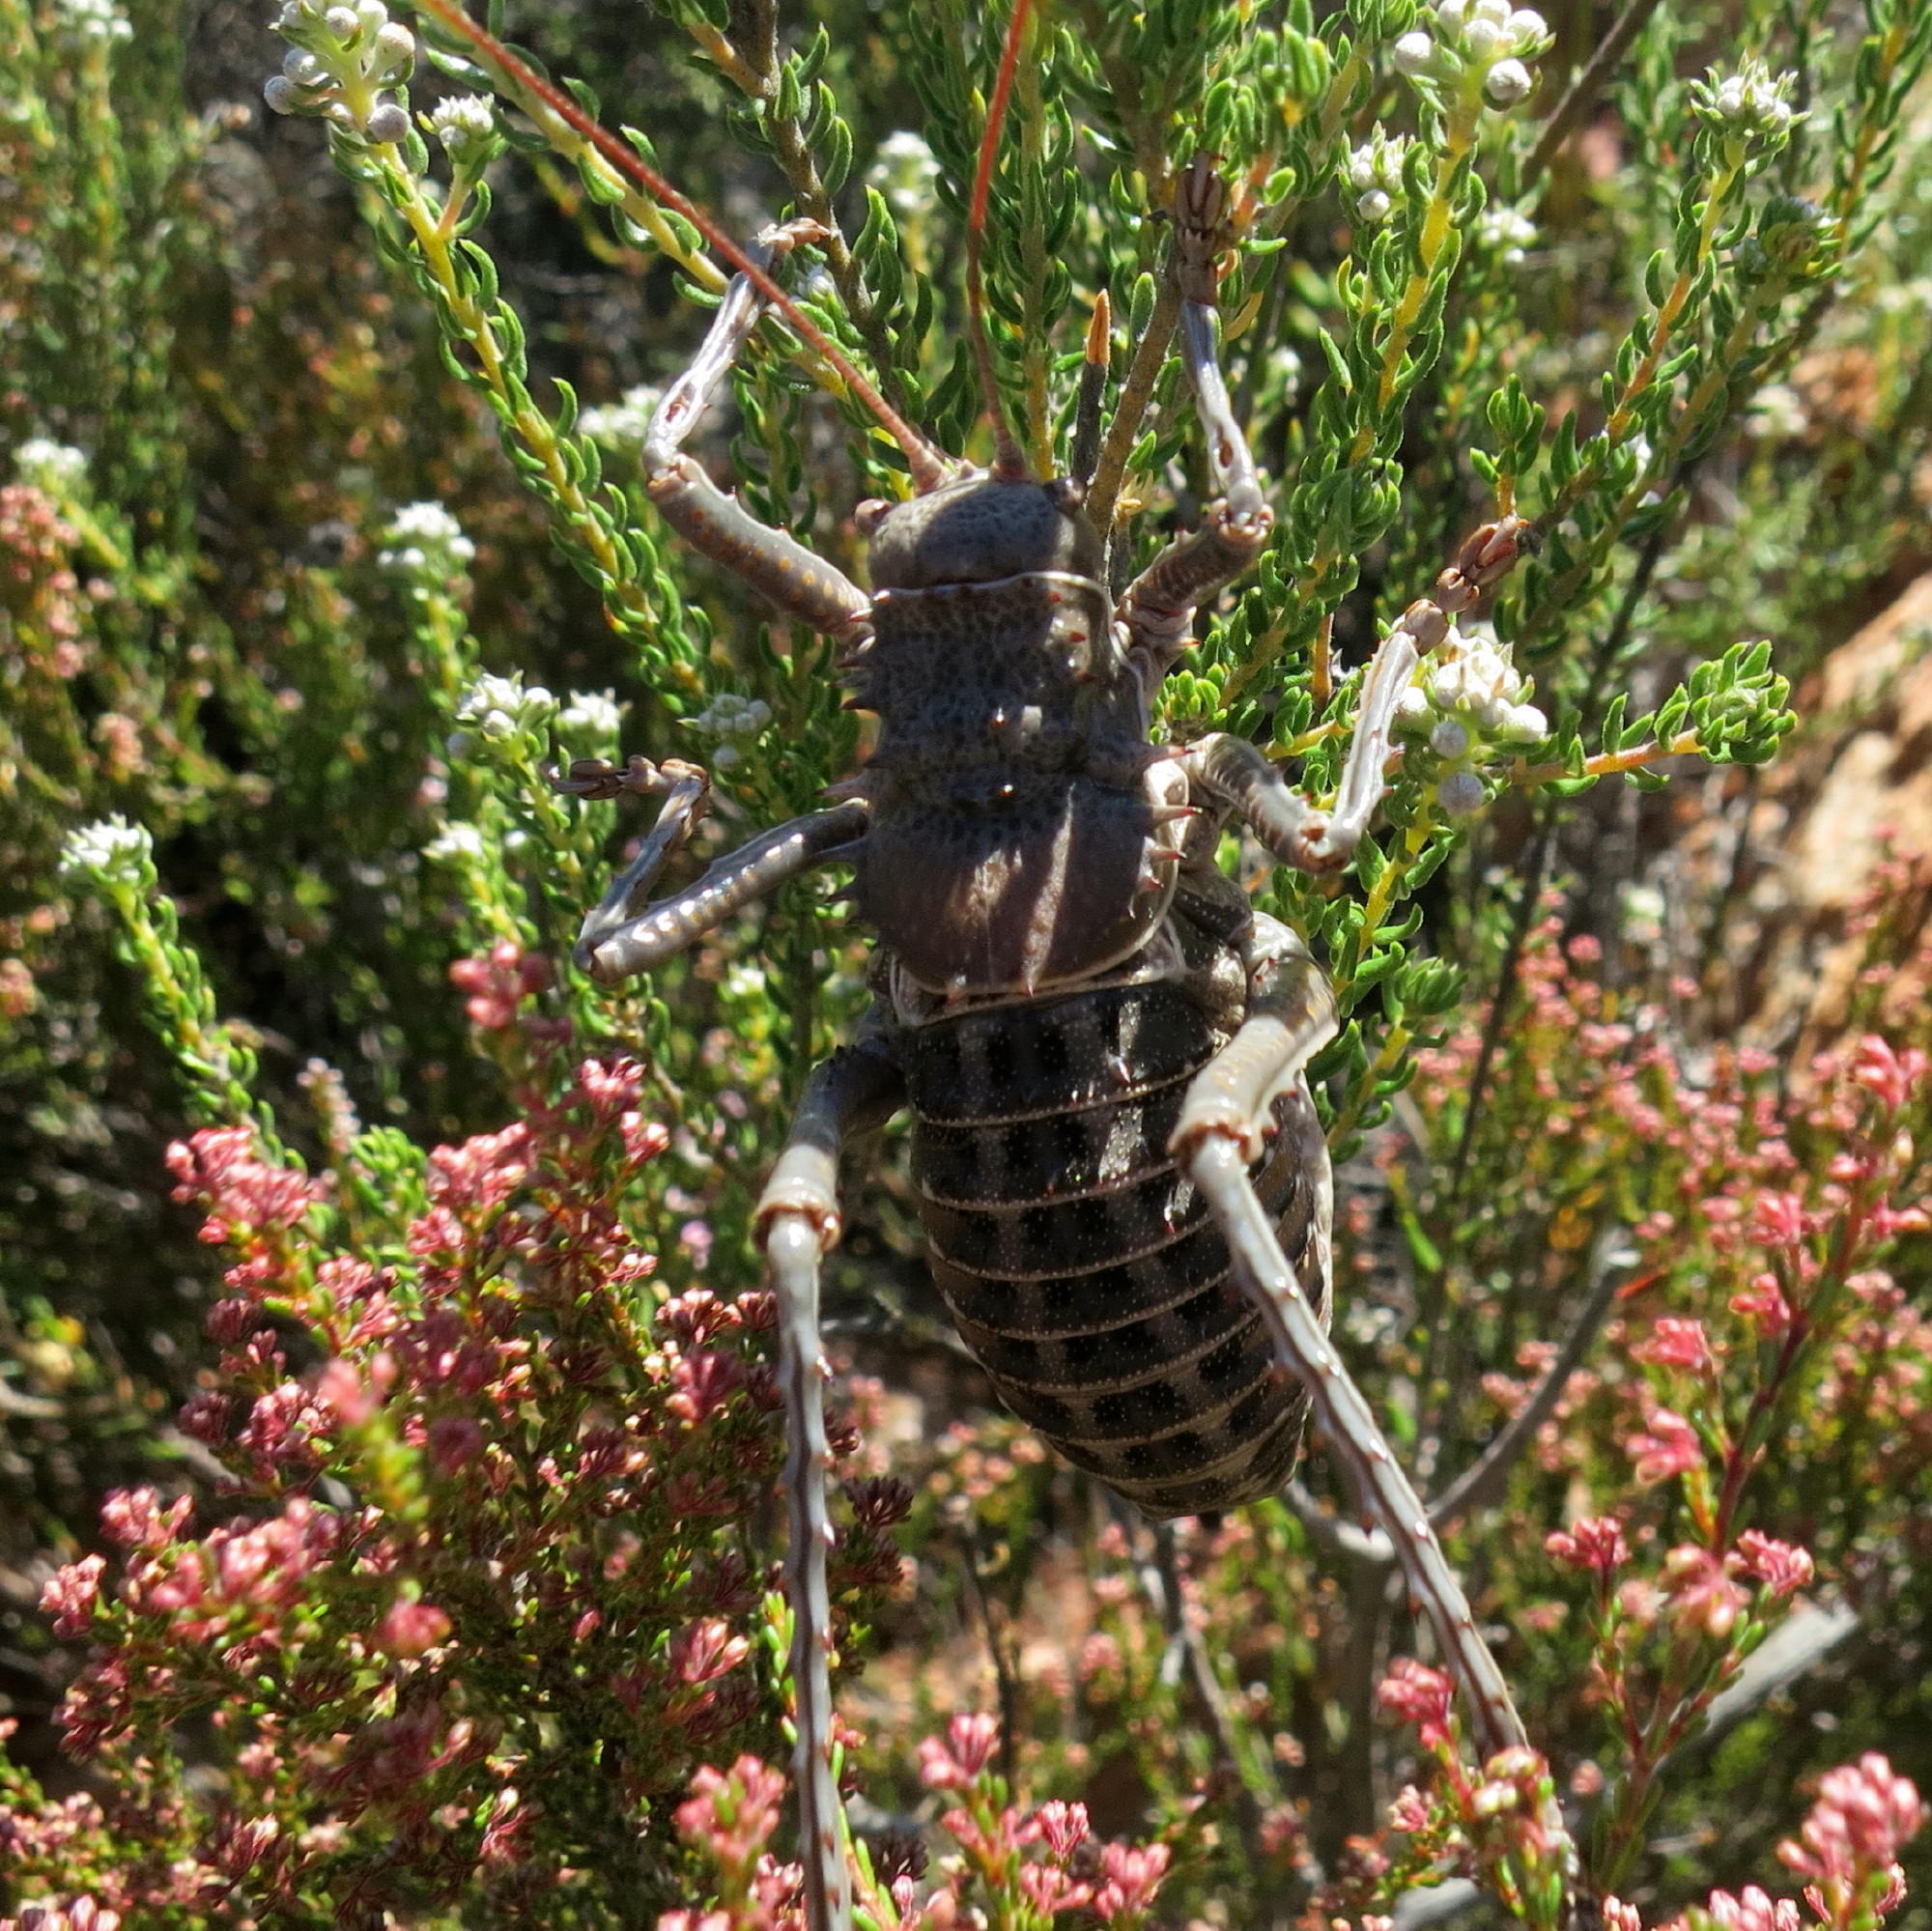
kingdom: Animalia
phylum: Arthropoda
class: Insecta
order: Orthoptera
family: Tettigoniidae
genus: Hetrodes
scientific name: Hetrodes pupus
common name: Koringkriek
